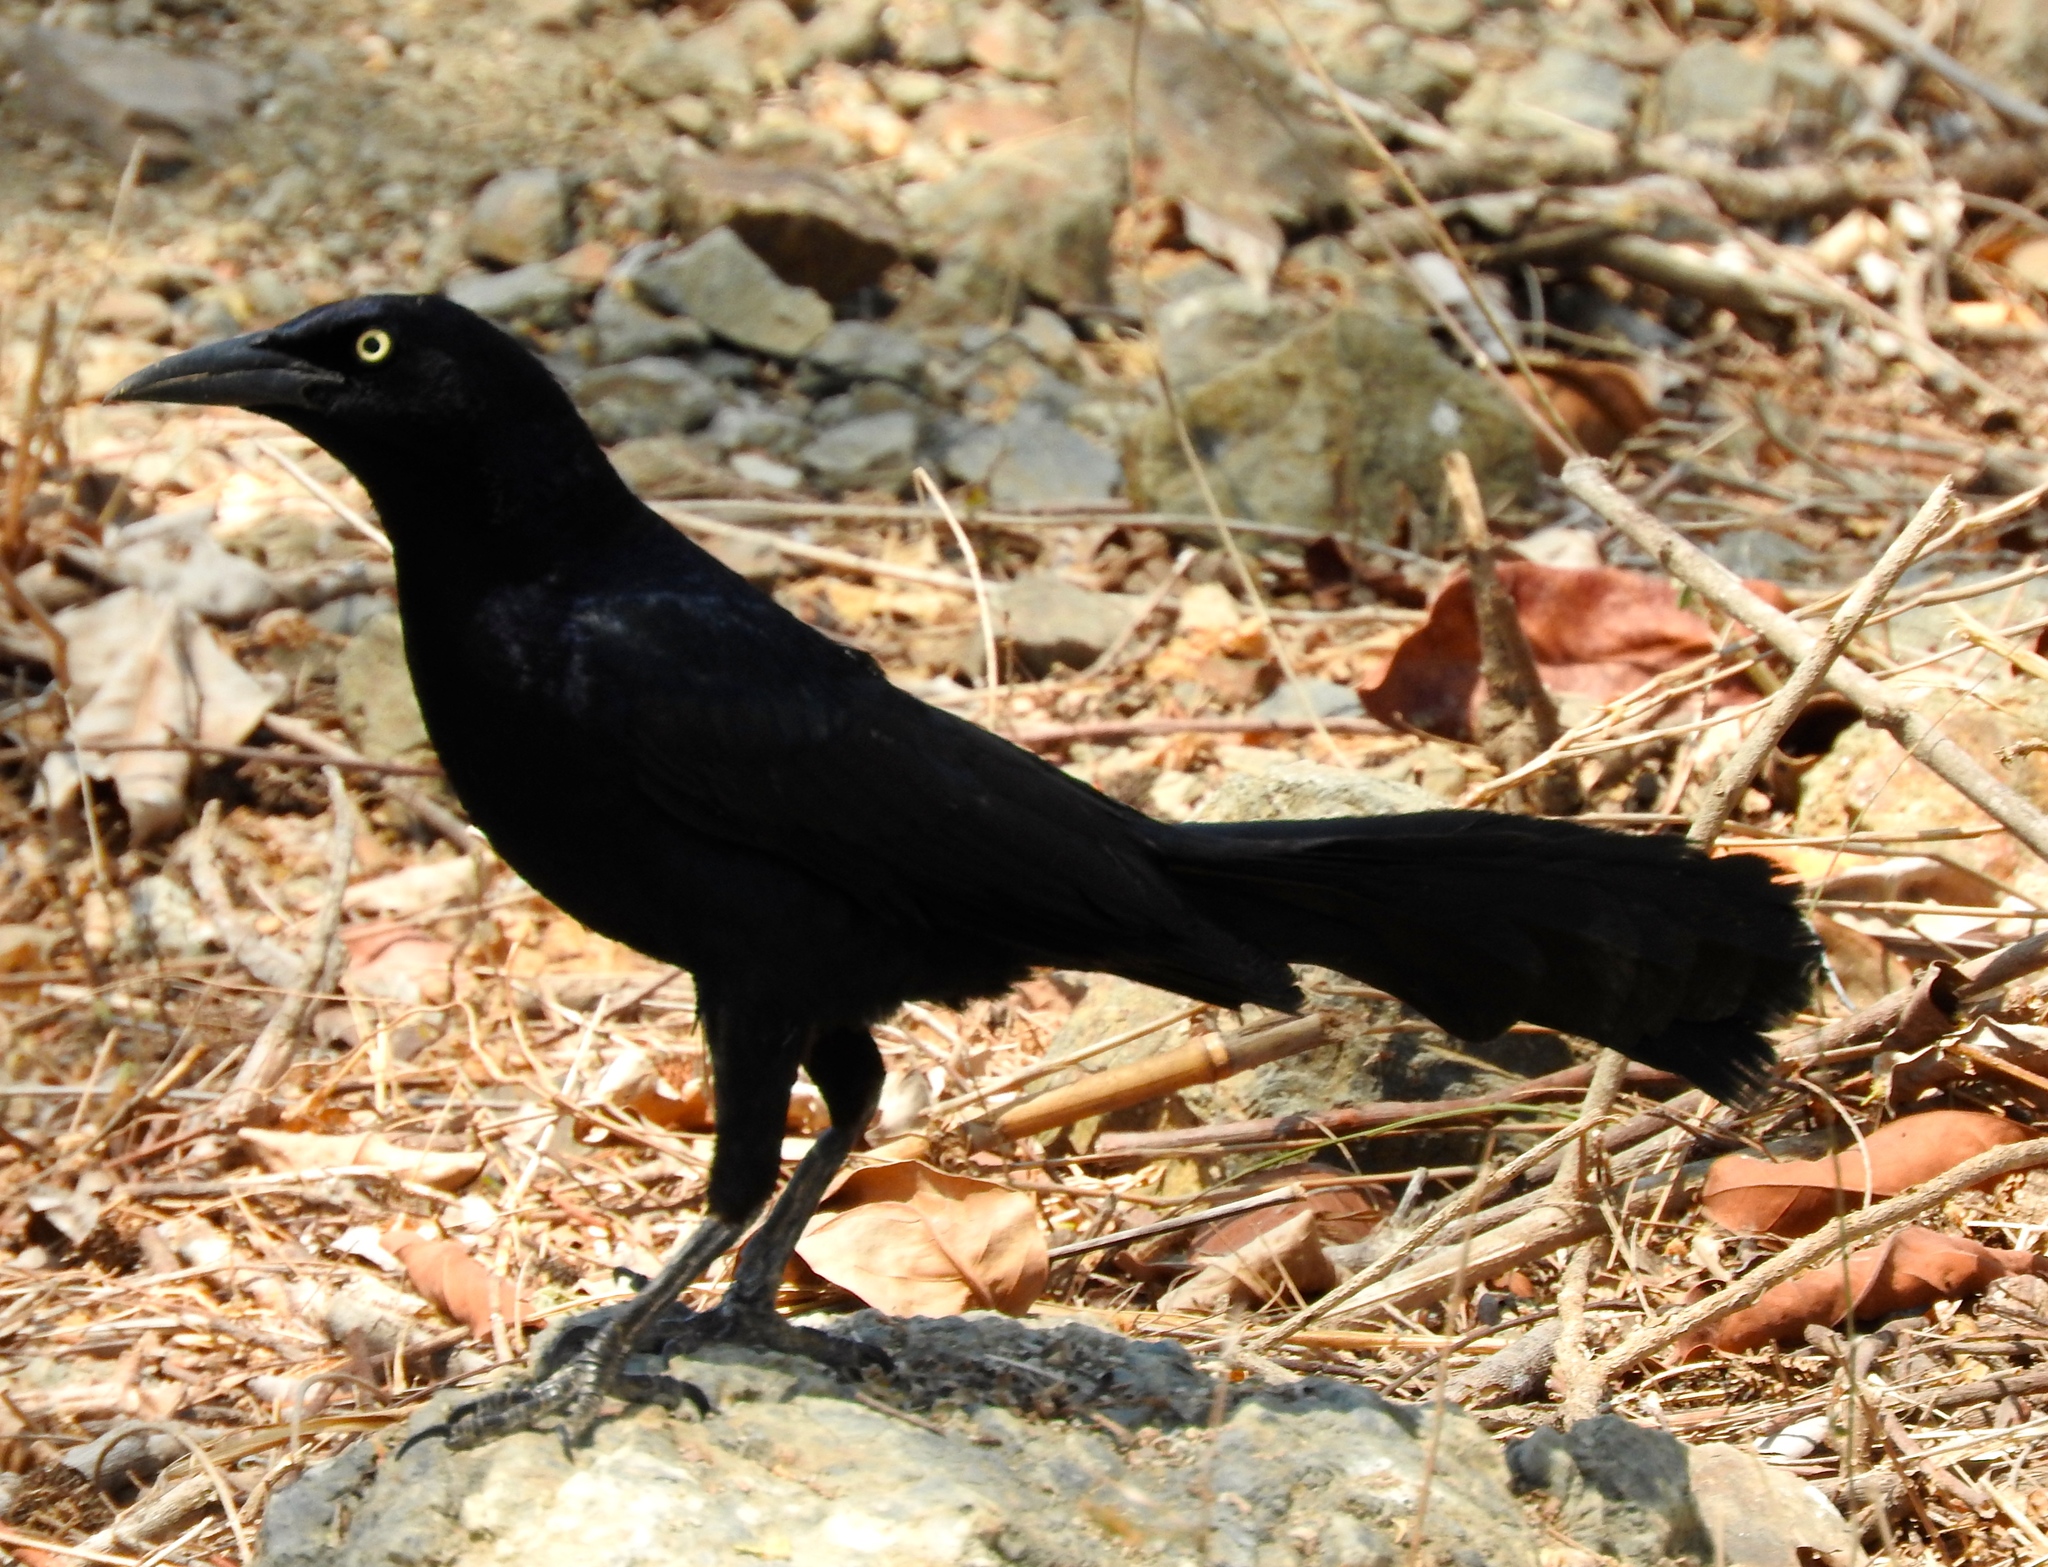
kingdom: Animalia
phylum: Chordata
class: Aves
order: Passeriformes
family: Icteridae
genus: Quiscalus
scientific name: Quiscalus mexicanus
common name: Great-tailed grackle
